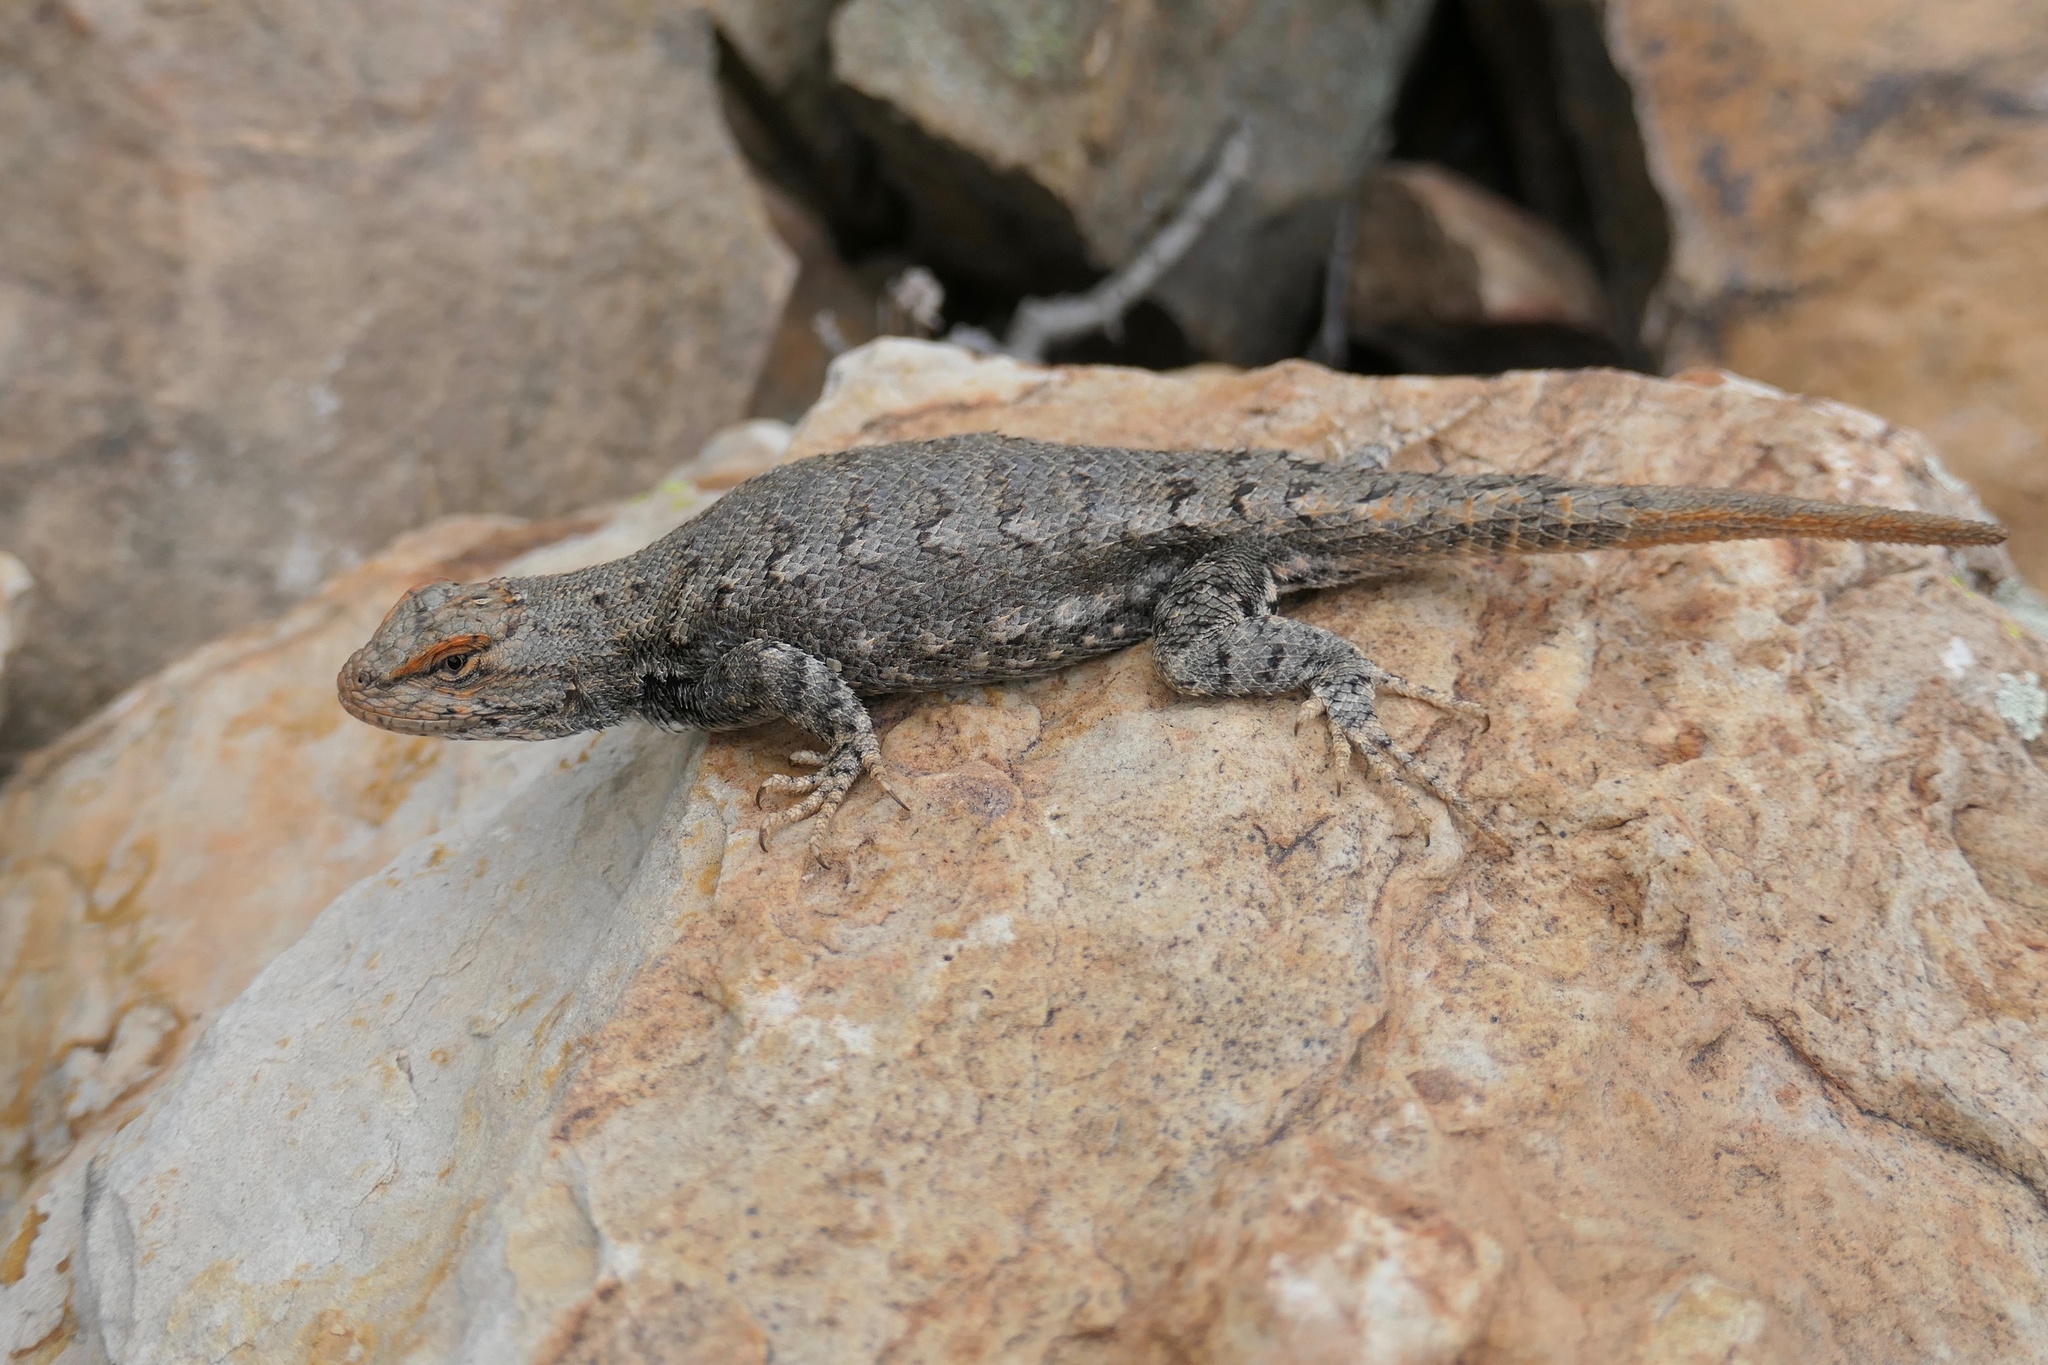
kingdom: Animalia
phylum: Chordata
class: Squamata
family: Phrynosomatidae
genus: Sceloporus
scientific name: Sceloporus consobrinus
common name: Southern prairie lizard
